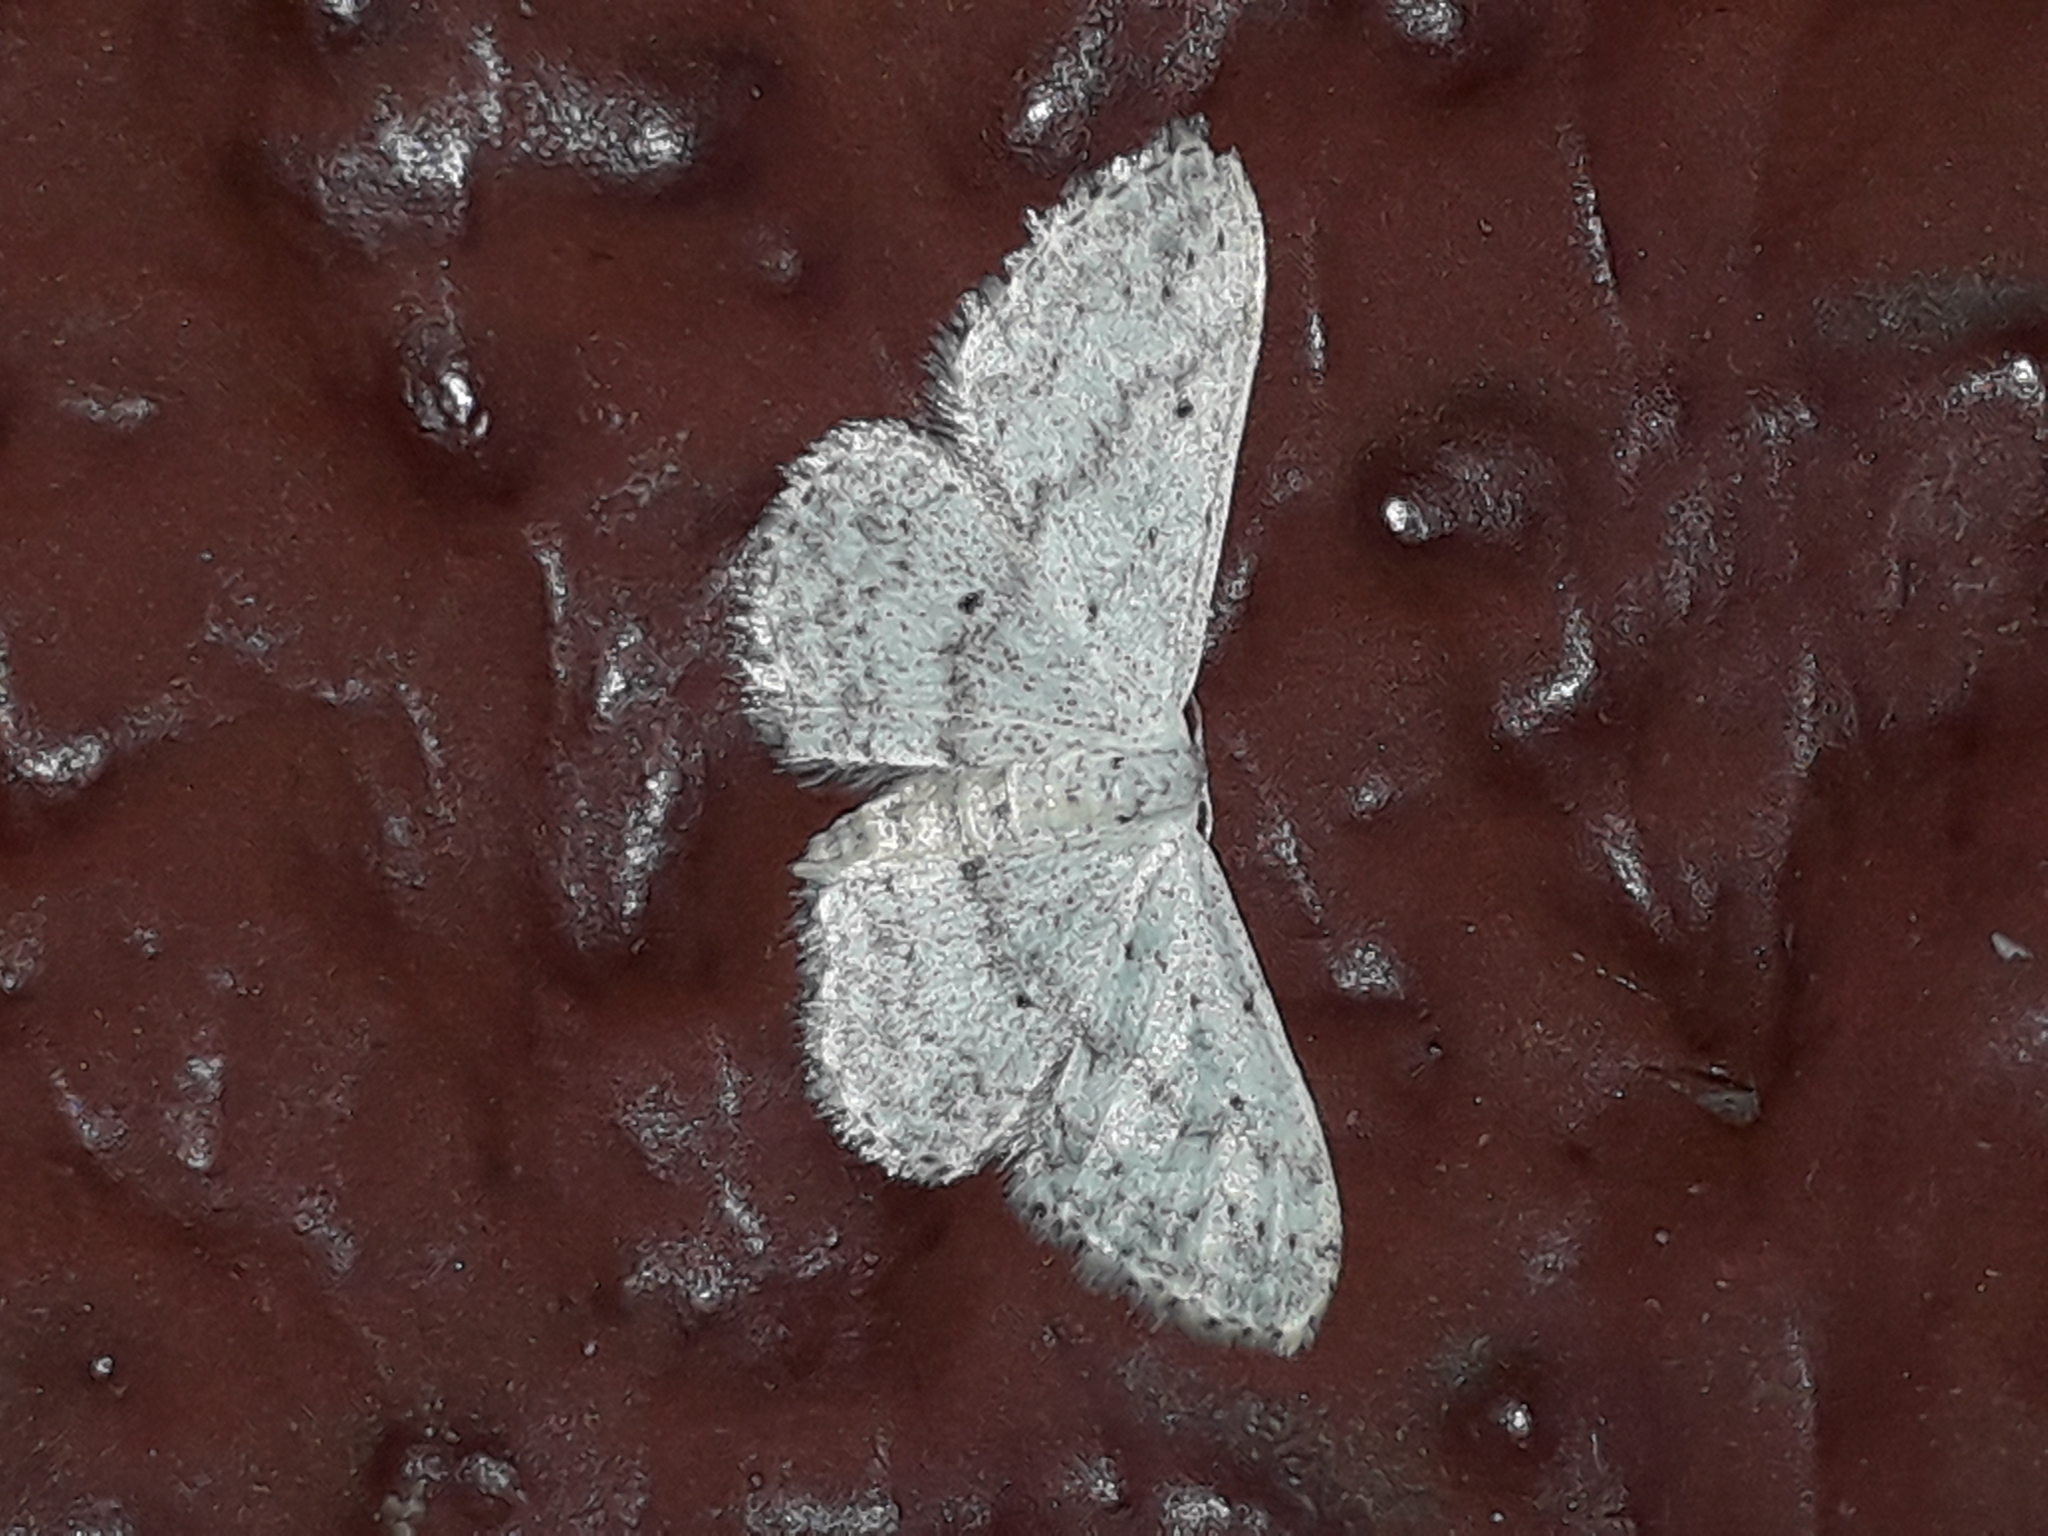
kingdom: Animalia
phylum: Arthropoda
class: Insecta
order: Lepidoptera
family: Geometridae
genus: Idaea
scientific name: Idaea seriata
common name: Small dusty wave
